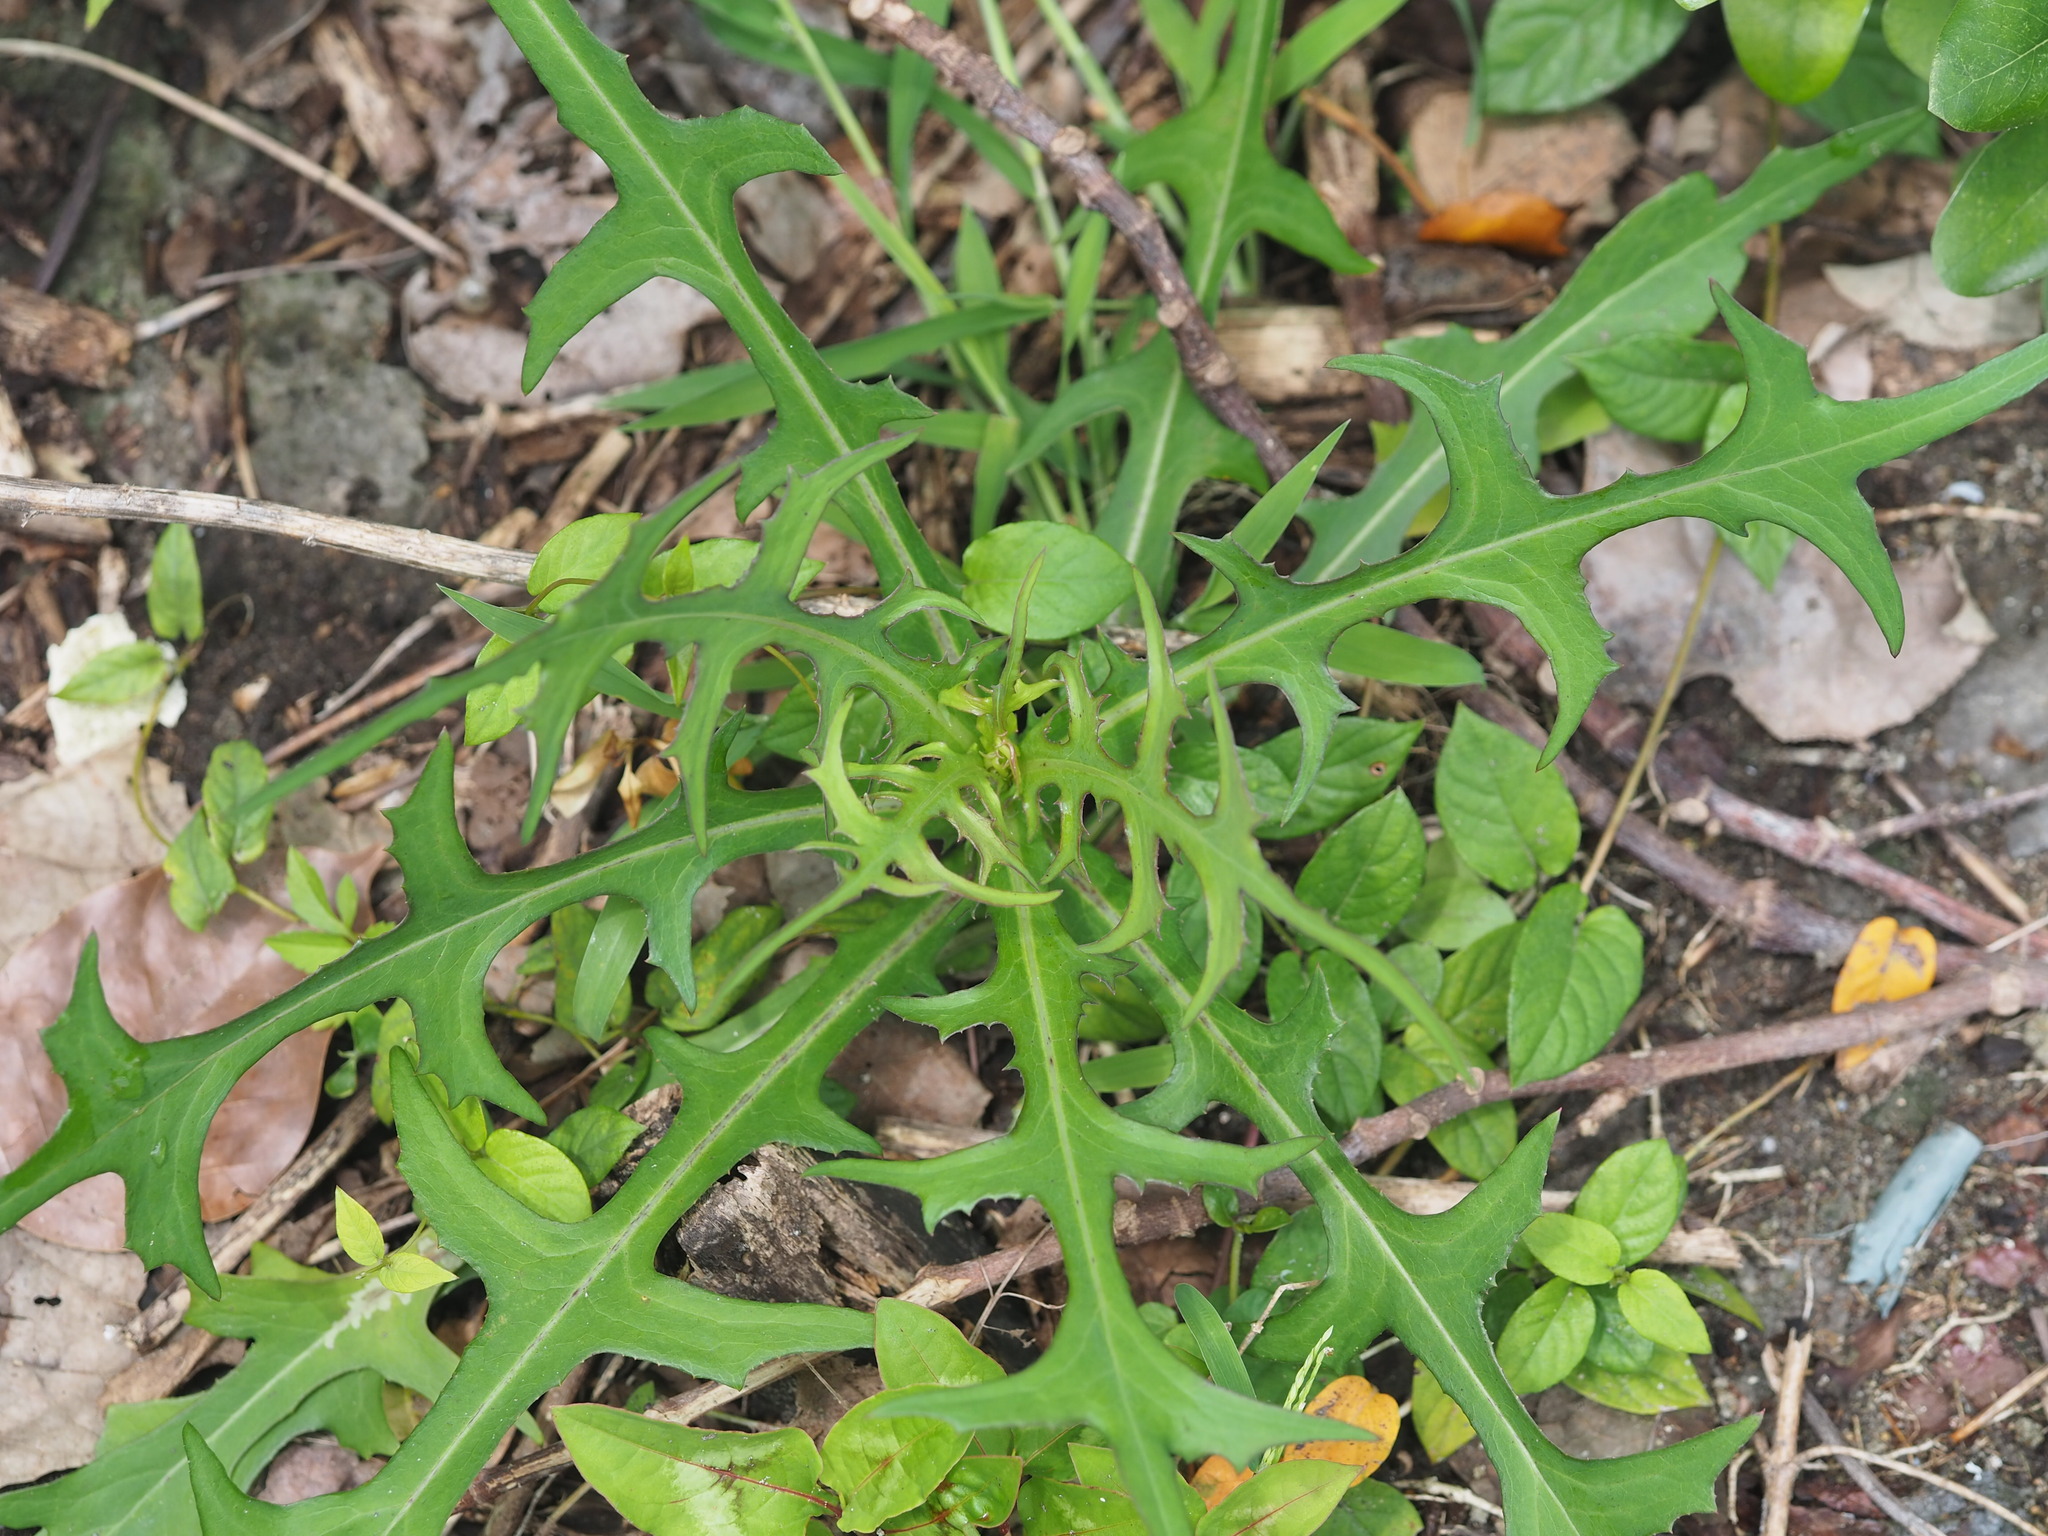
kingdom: Plantae
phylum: Tracheophyta
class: Magnoliopsida
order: Asterales
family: Asteraceae
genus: Lactuca
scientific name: Lactuca indica
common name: Wild lettuce
